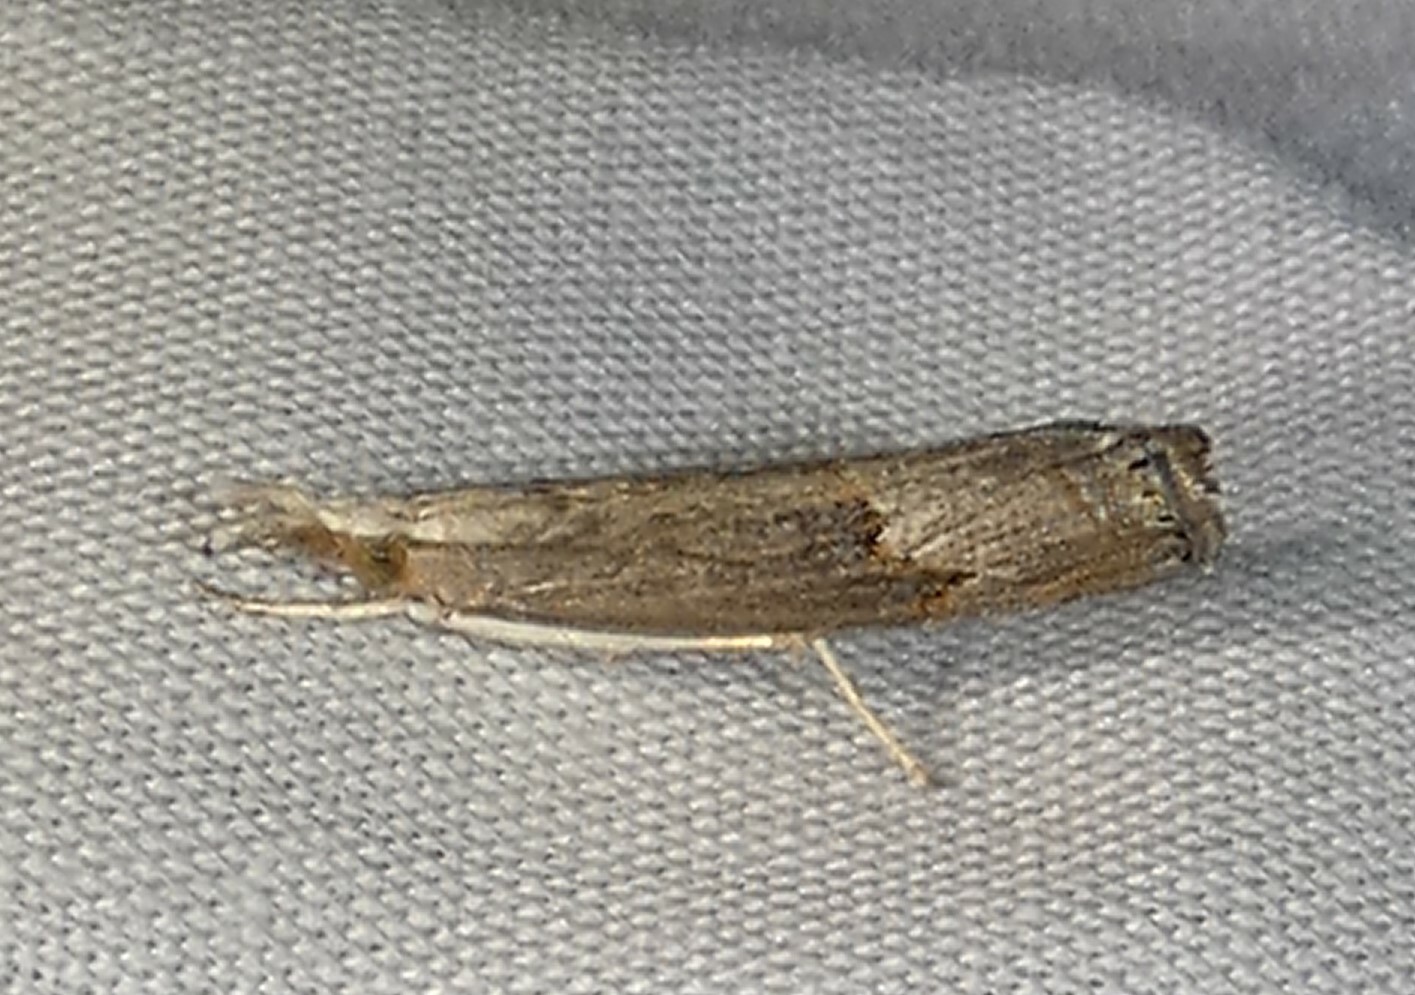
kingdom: Animalia
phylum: Arthropoda
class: Insecta
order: Lepidoptera
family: Crambidae
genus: Parapediasia
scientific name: Parapediasia teterellus
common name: Bluegrass webworm moth
